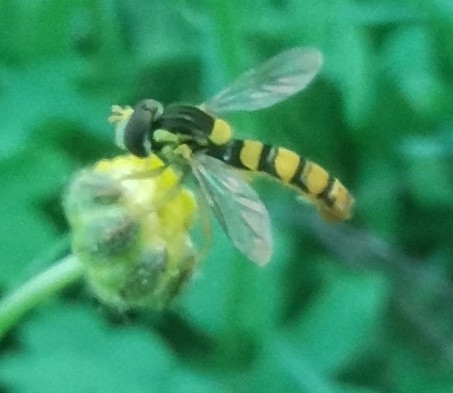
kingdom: Animalia
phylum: Arthropoda
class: Insecta
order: Diptera
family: Syrphidae
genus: Sphaerophoria
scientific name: Sphaerophoria
